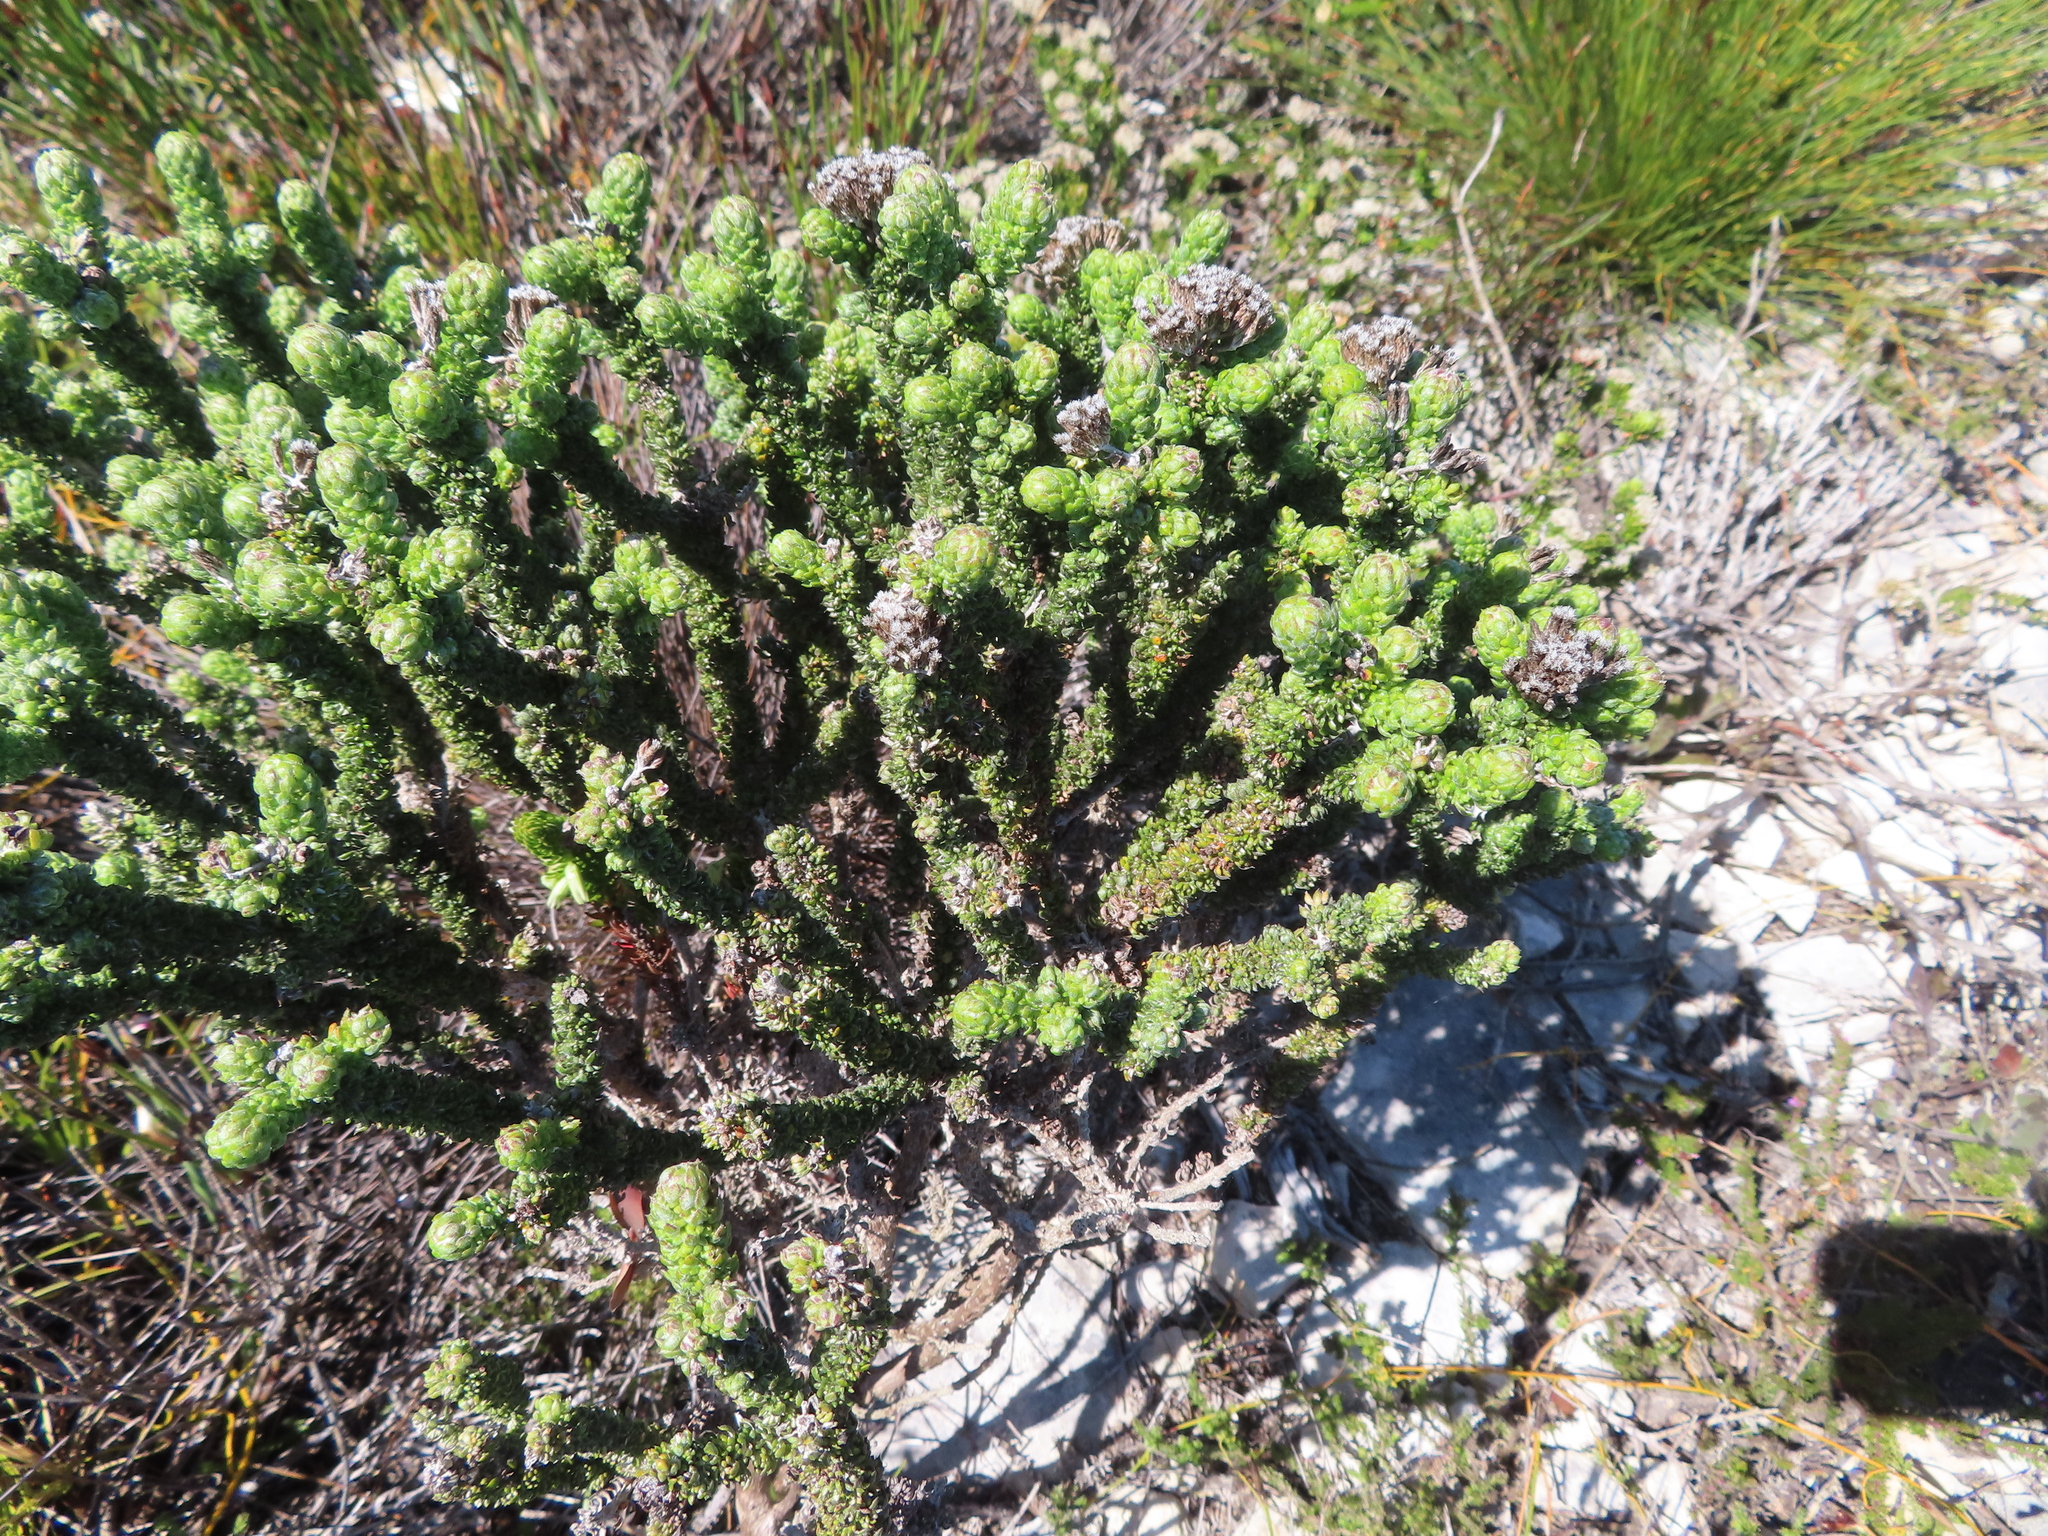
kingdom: Plantae
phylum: Tracheophyta
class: Magnoliopsida
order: Asterales
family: Asteraceae
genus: Metalasia
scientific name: Metalasia calcicola
